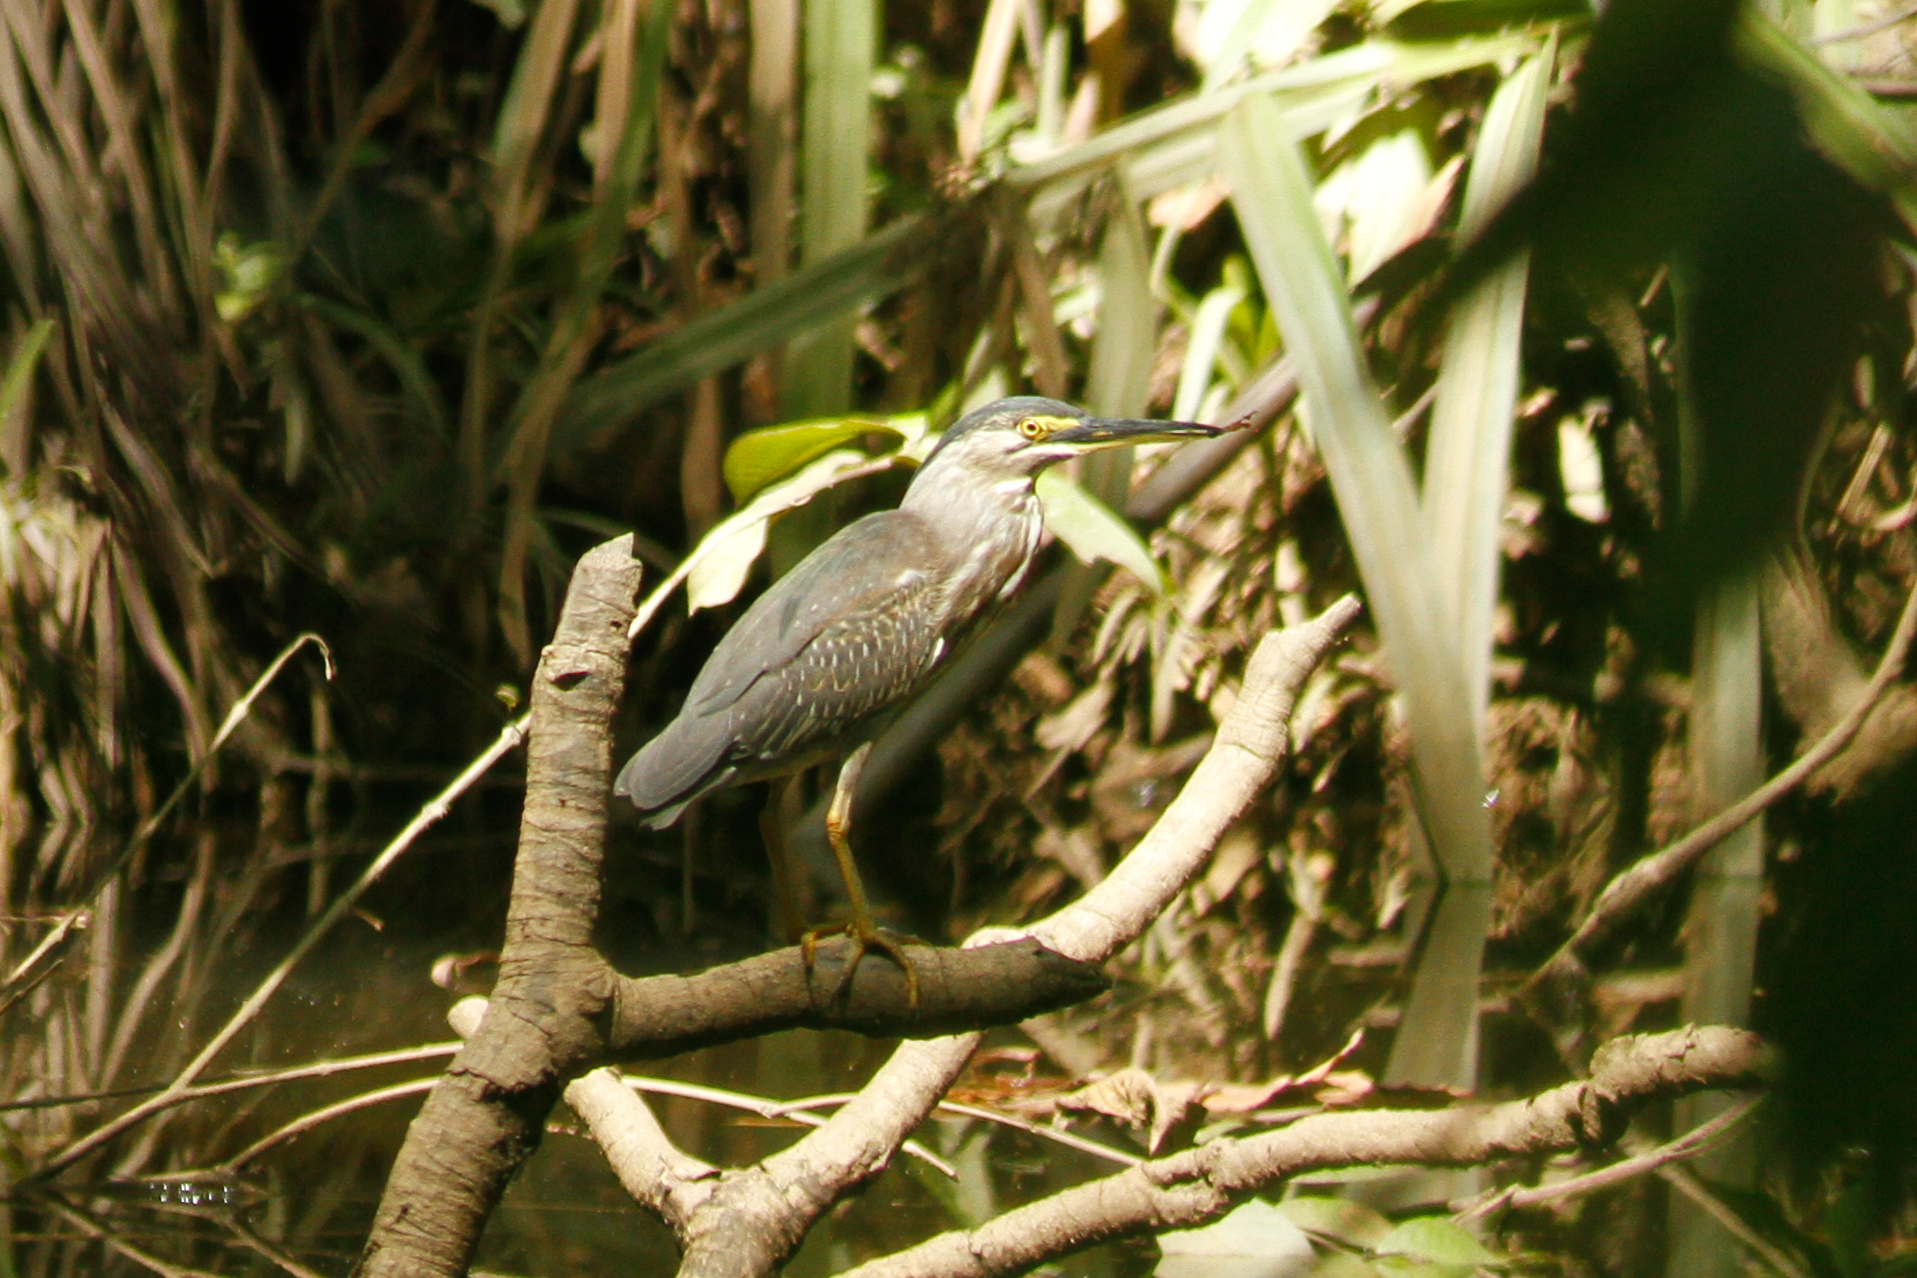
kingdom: Animalia
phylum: Chordata
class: Aves
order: Pelecaniformes
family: Ardeidae
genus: Butorides
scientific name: Butorides striata
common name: Striated heron
